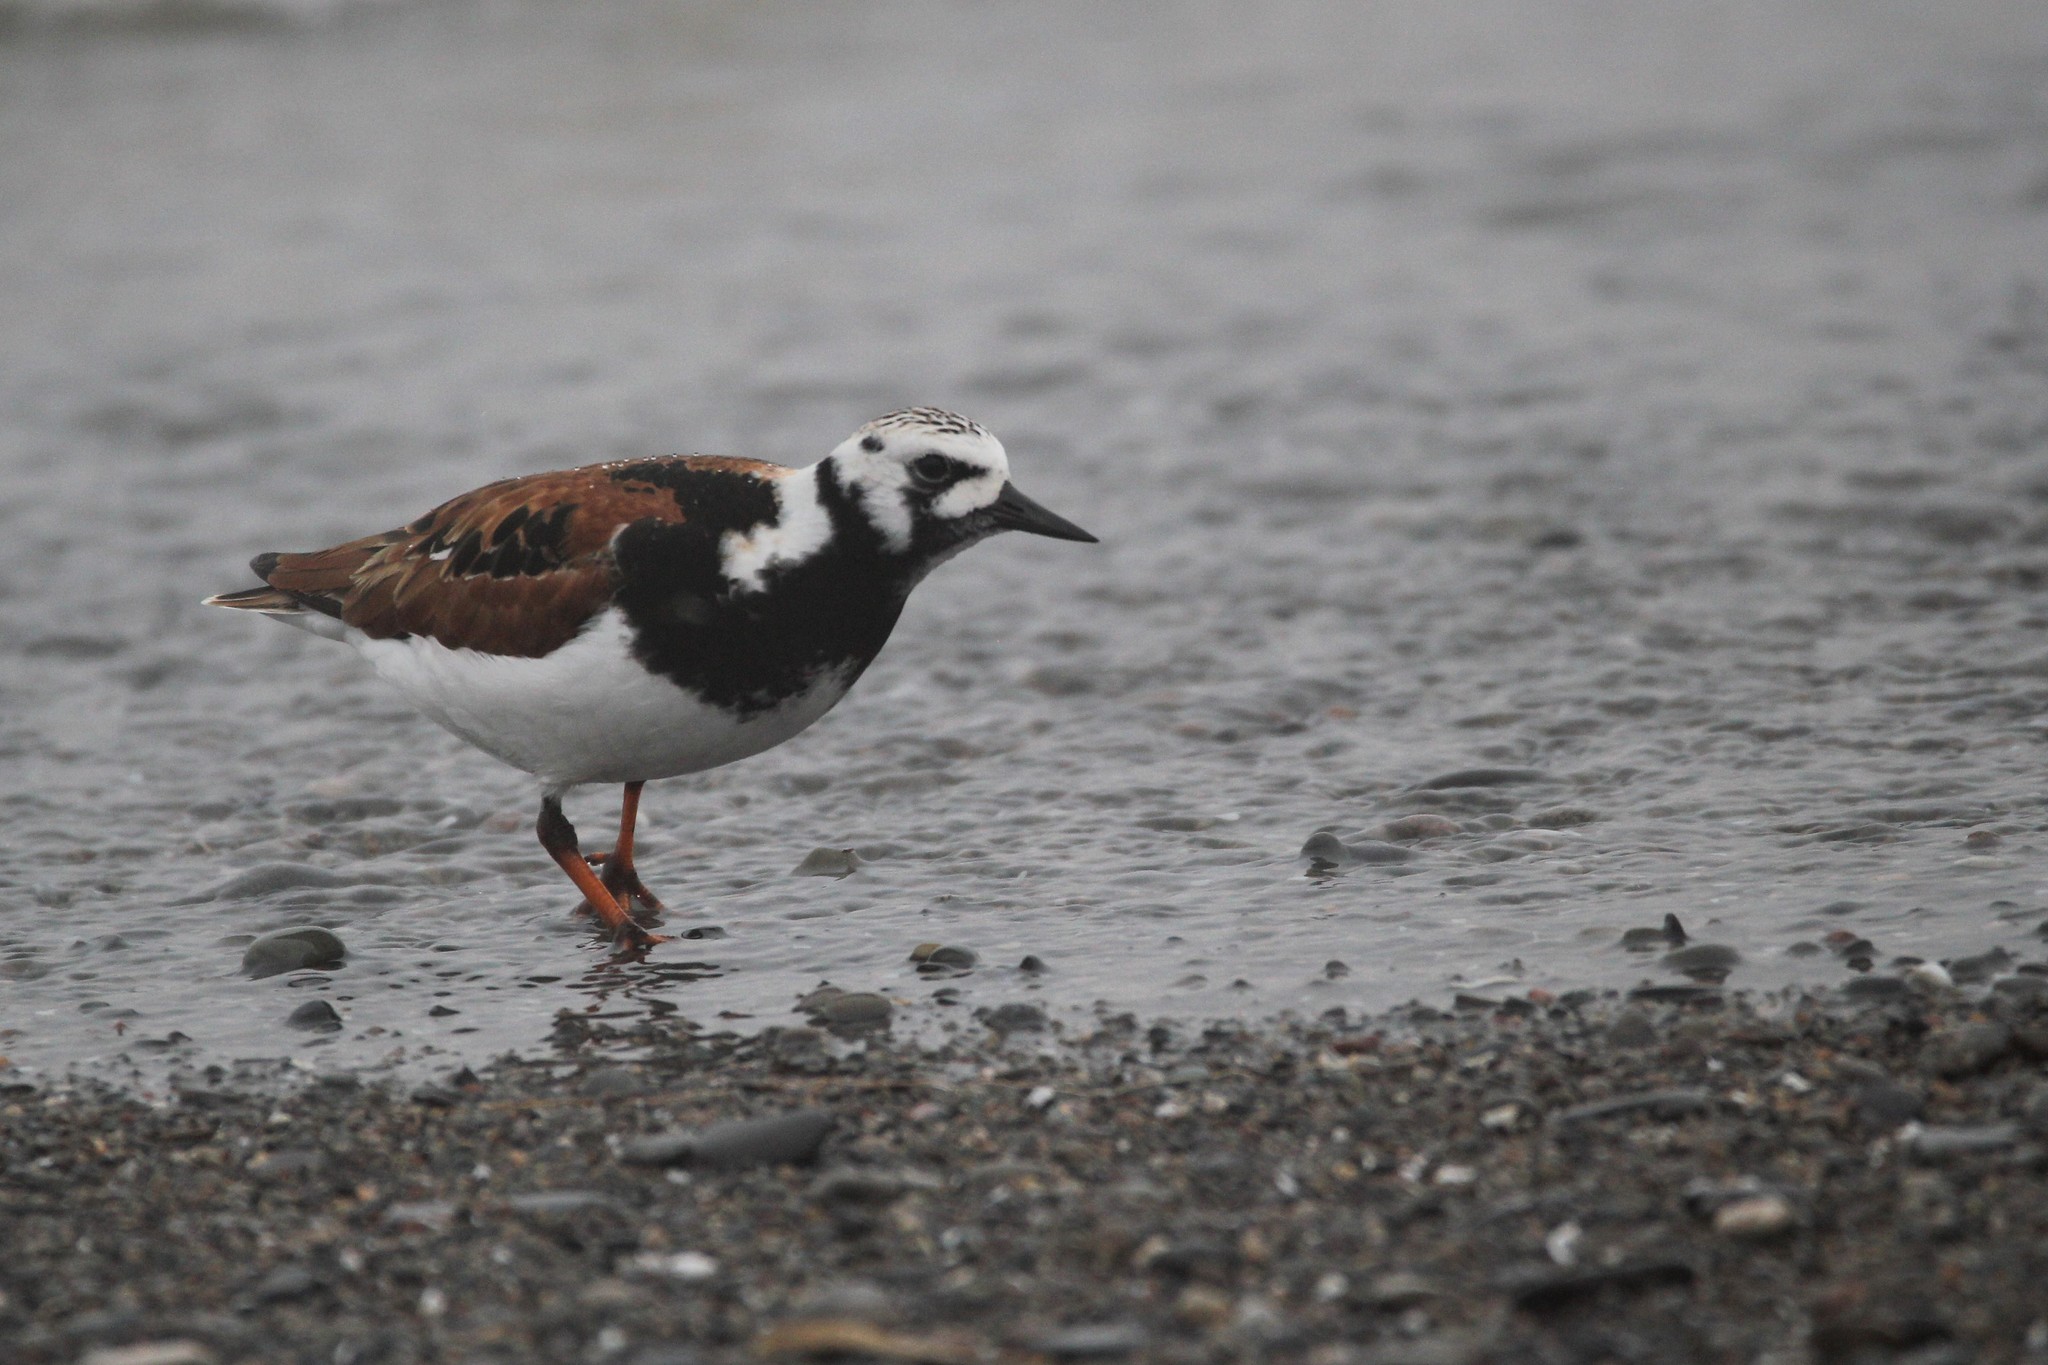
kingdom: Animalia
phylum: Chordata
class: Aves
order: Charadriiformes
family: Scolopacidae
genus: Arenaria
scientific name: Arenaria interpres
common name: Ruddy turnstone
